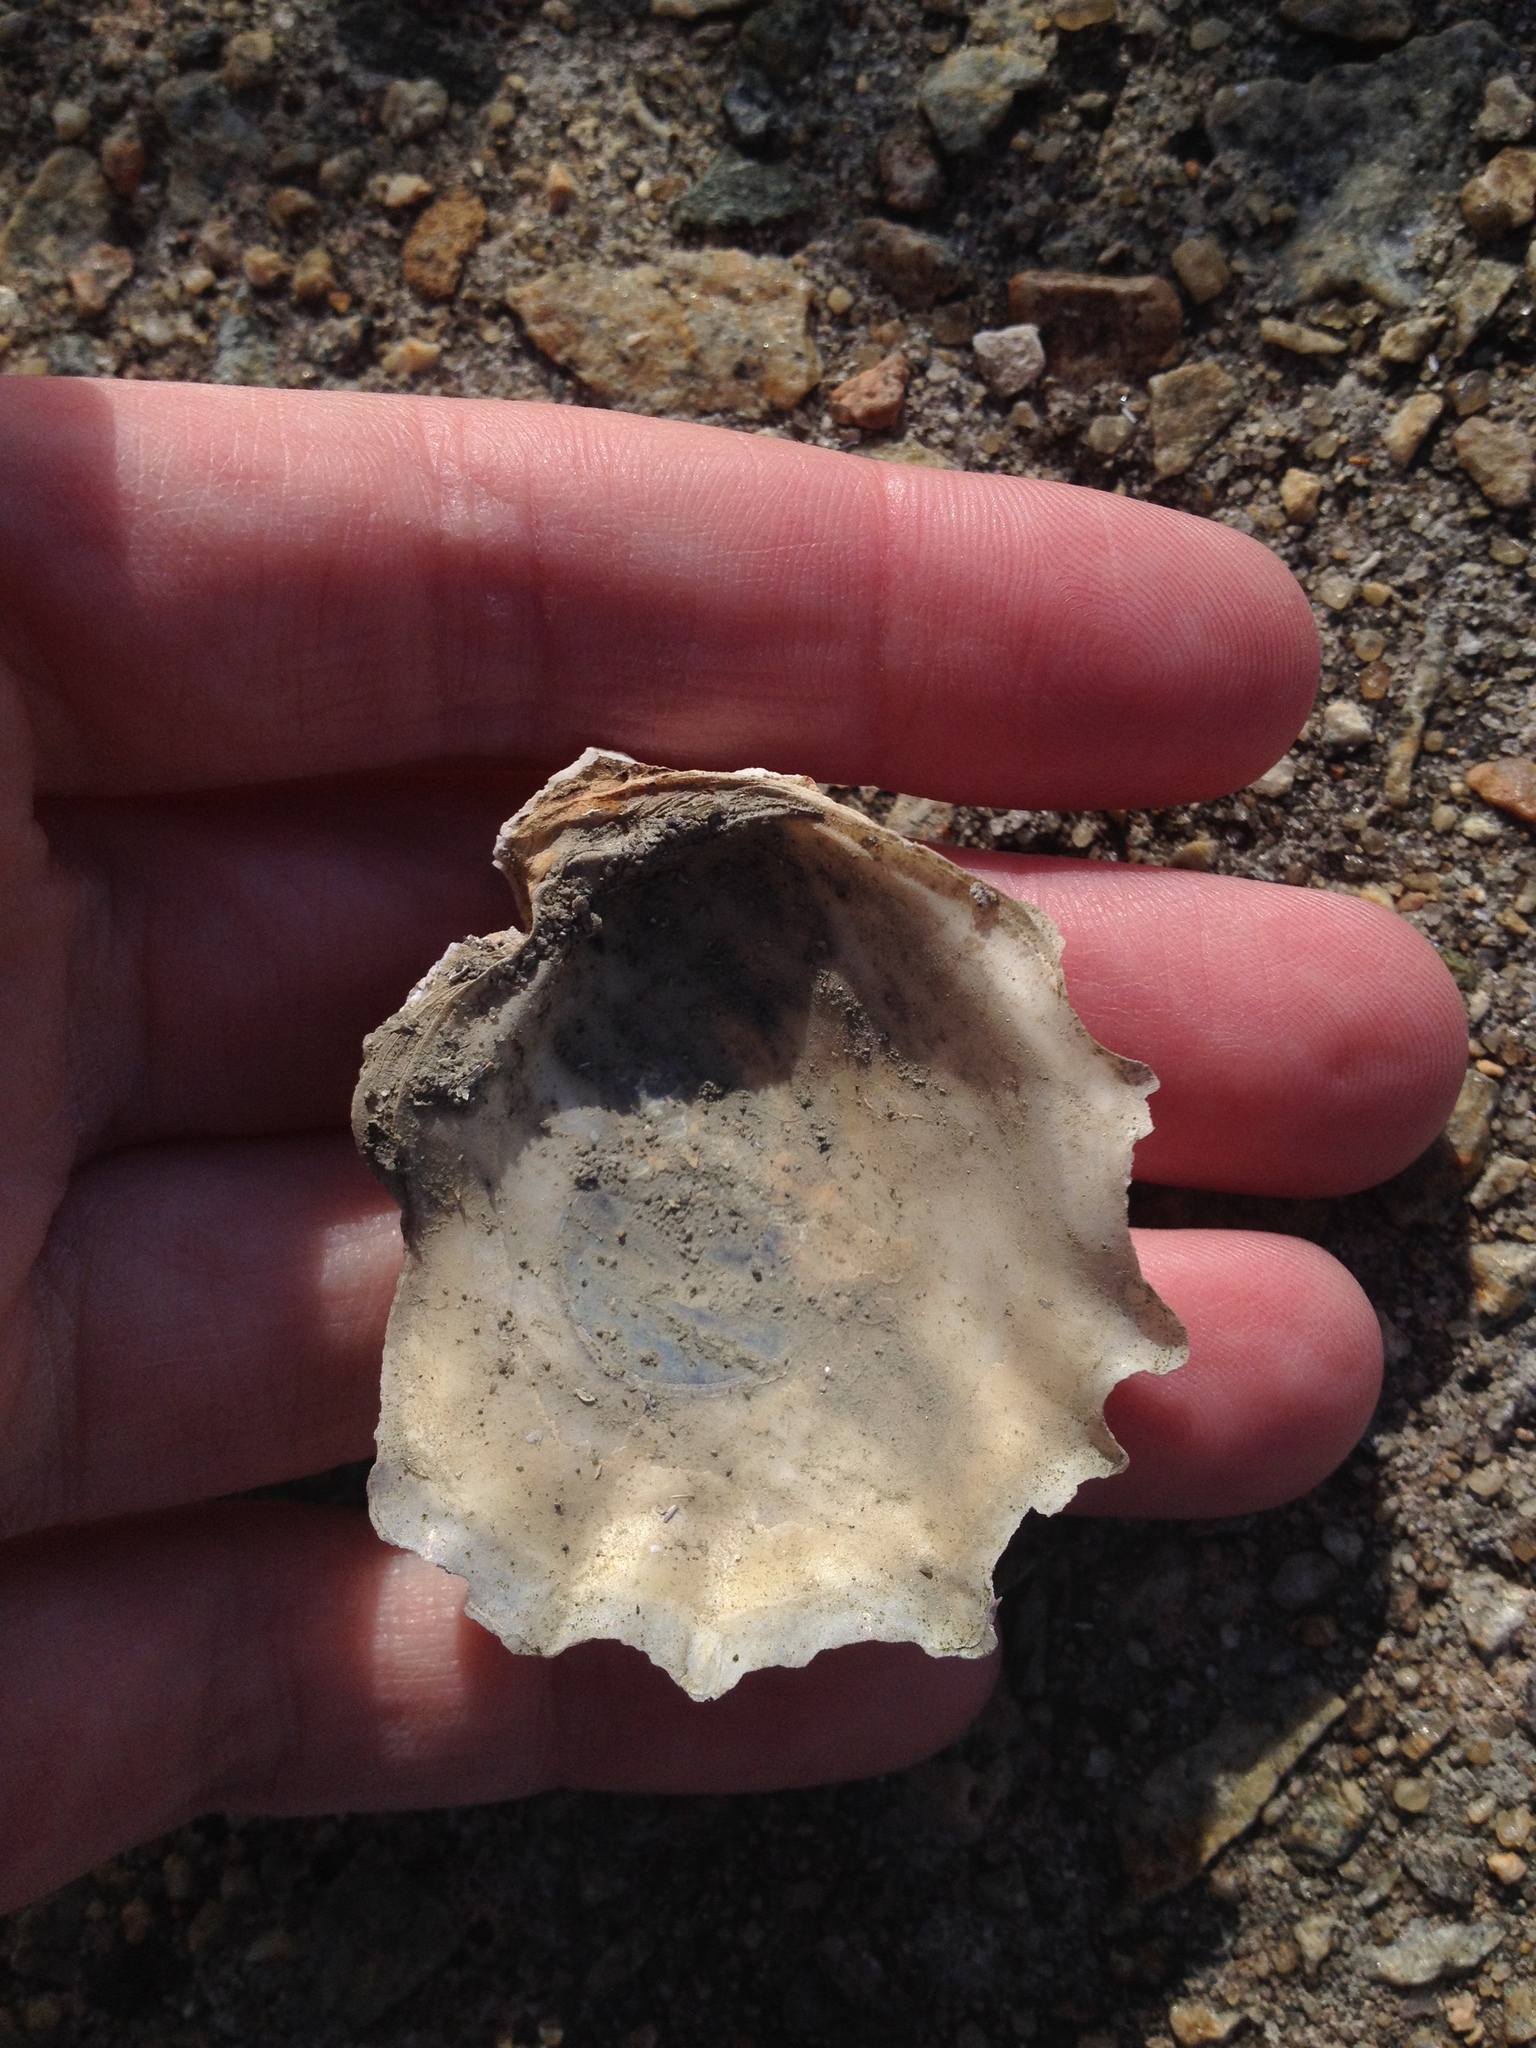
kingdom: Animalia
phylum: Mollusca
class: Bivalvia
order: Ostreida
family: Ostreidae
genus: Crassostrea
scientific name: Crassostrea virginica
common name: American oyster
